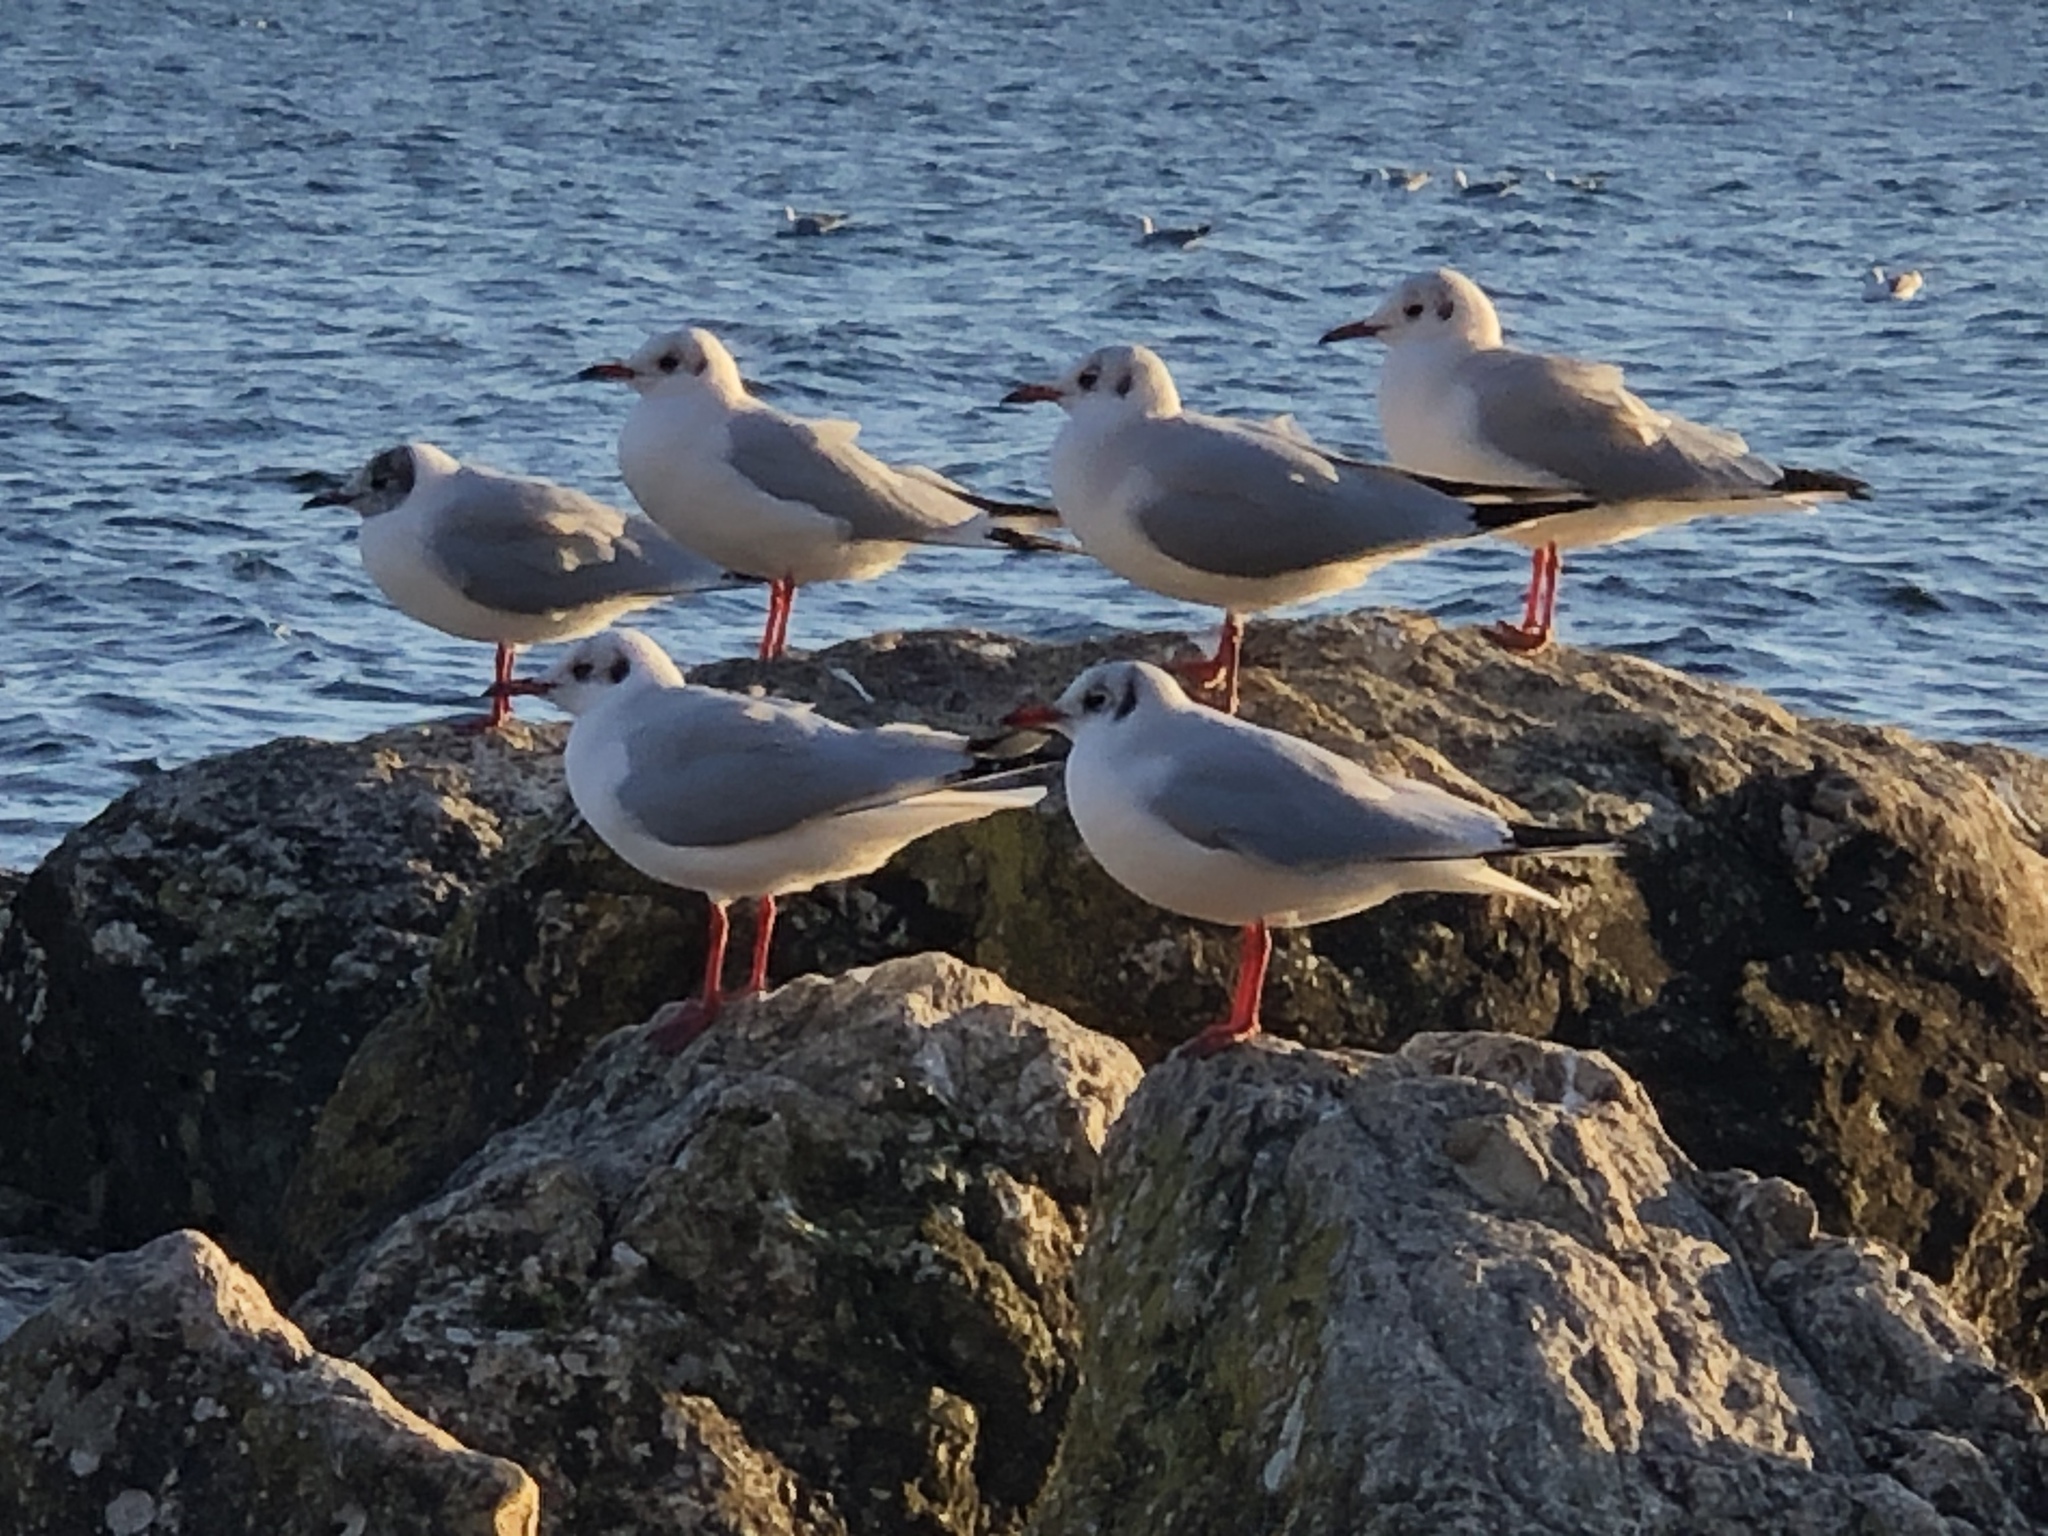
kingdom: Animalia
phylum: Chordata
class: Aves
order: Charadriiformes
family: Laridae
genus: Chroicocephalus
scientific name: Chroicocephalus ridibundus
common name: Black-headed gull
